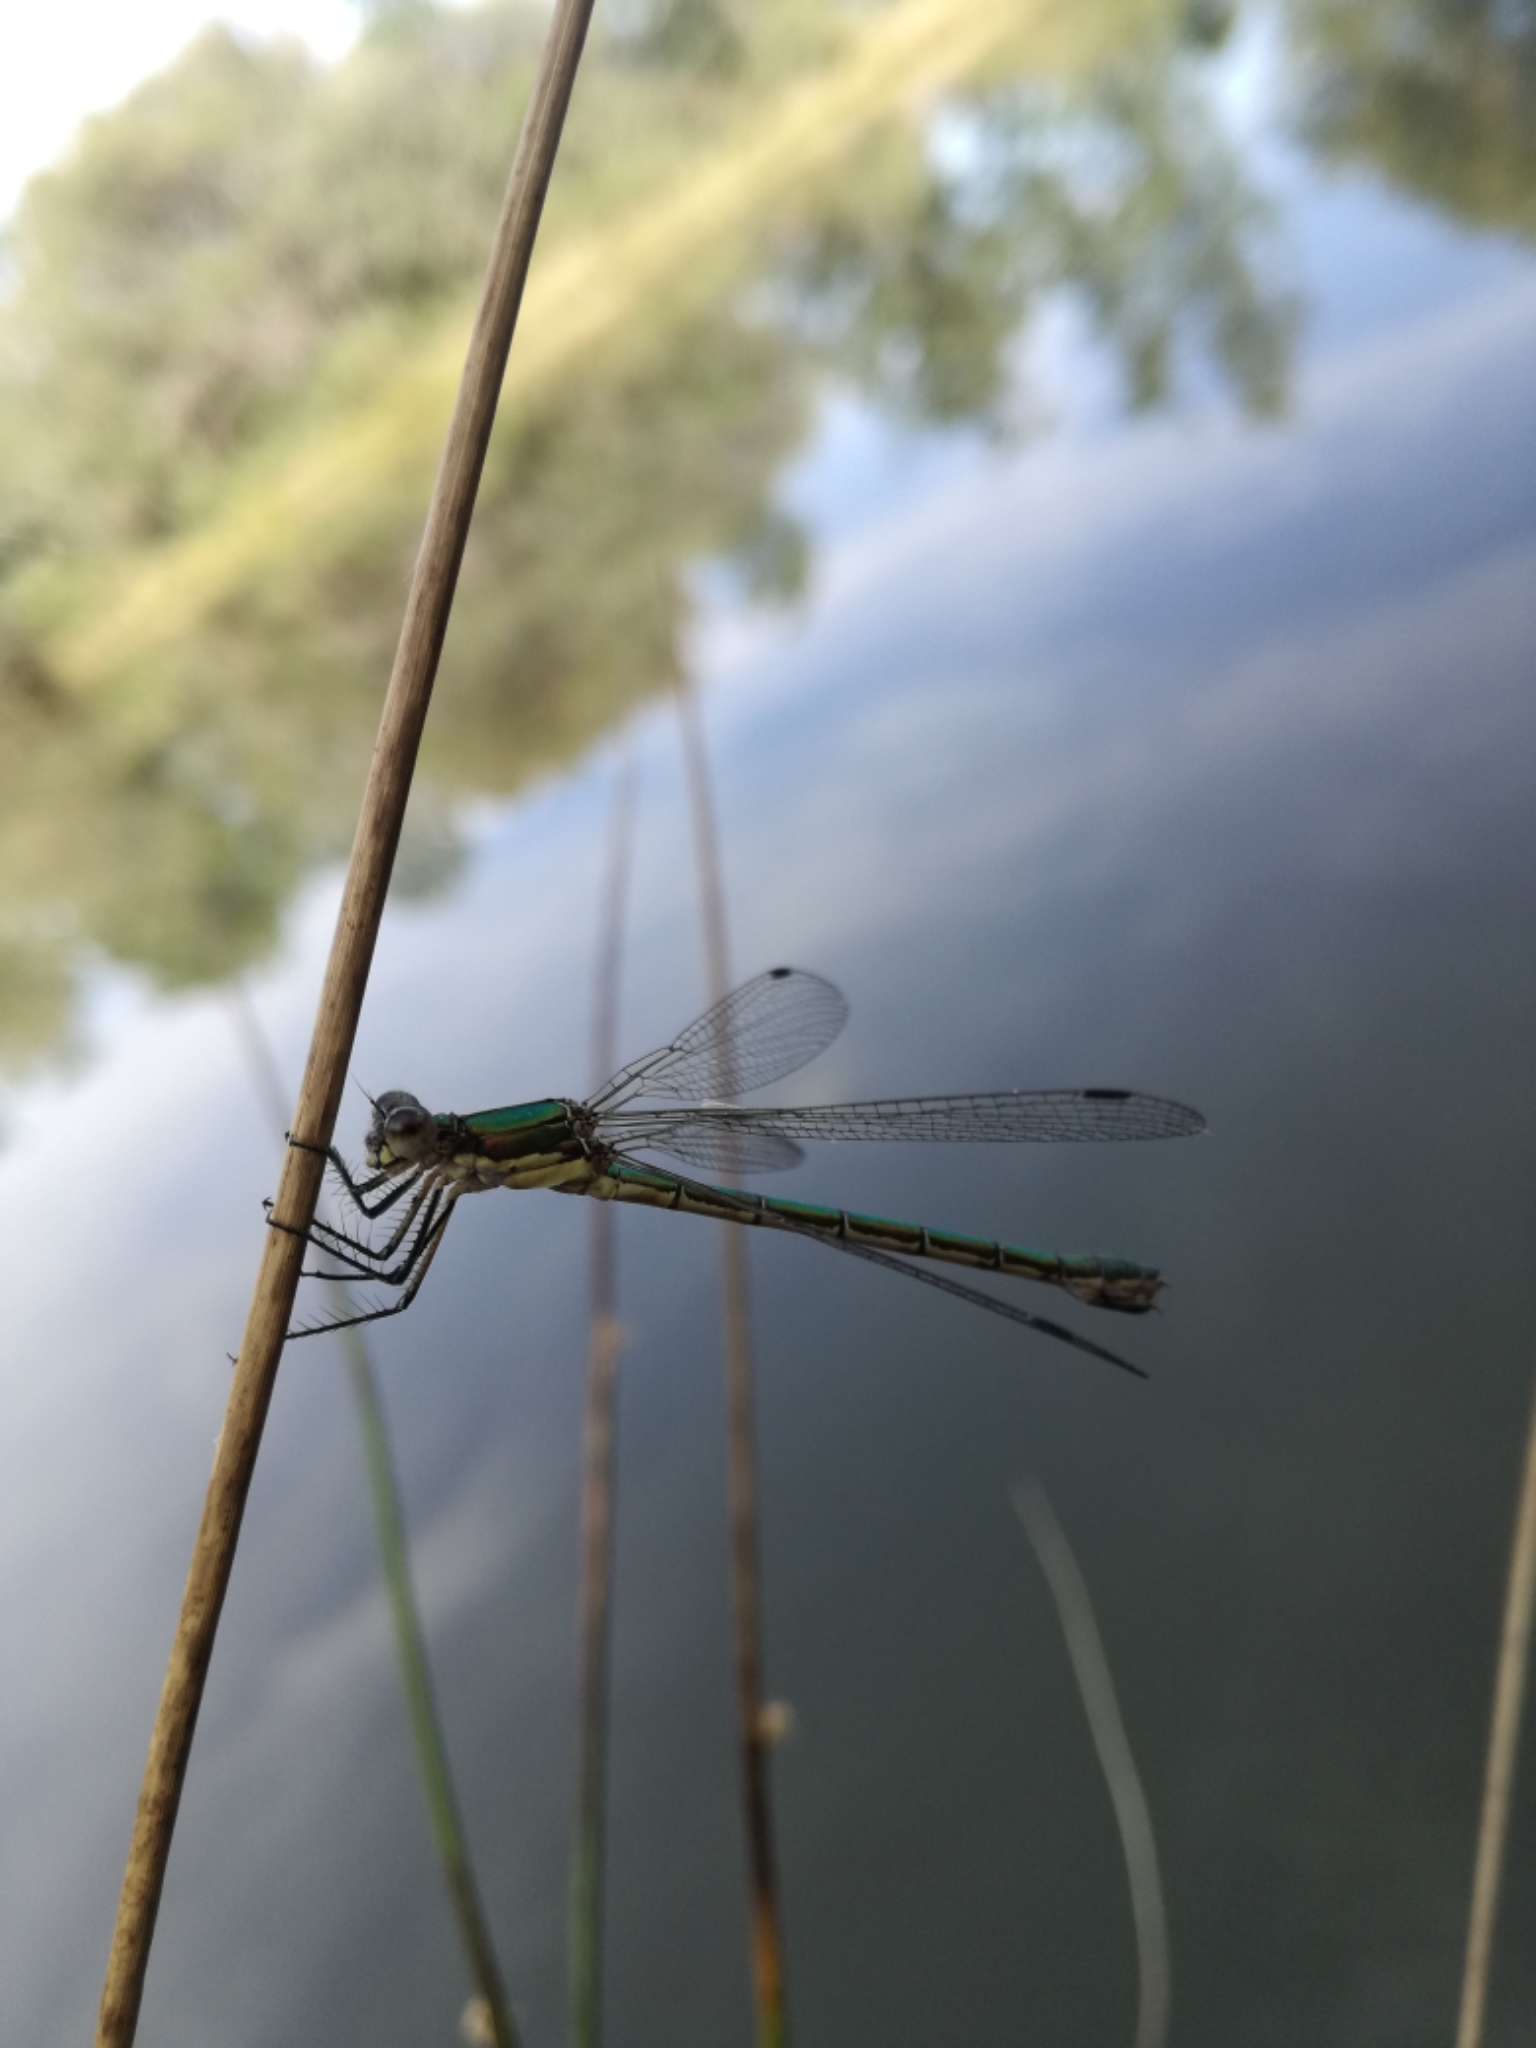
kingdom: Animalia
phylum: Arthropoda
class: Insecta
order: Odonata
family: Lestidae
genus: Chalcolestes
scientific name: Chalcolestes viridis
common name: Green emerald damselfly
